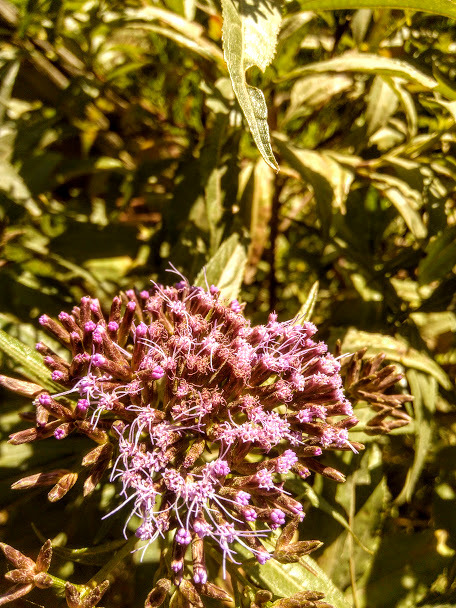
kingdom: Plantae
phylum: Tracheophyta
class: Magnoliopsida
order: Asterales
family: Asteraceae
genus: Chromolaena
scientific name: Chromolaena perglabra
